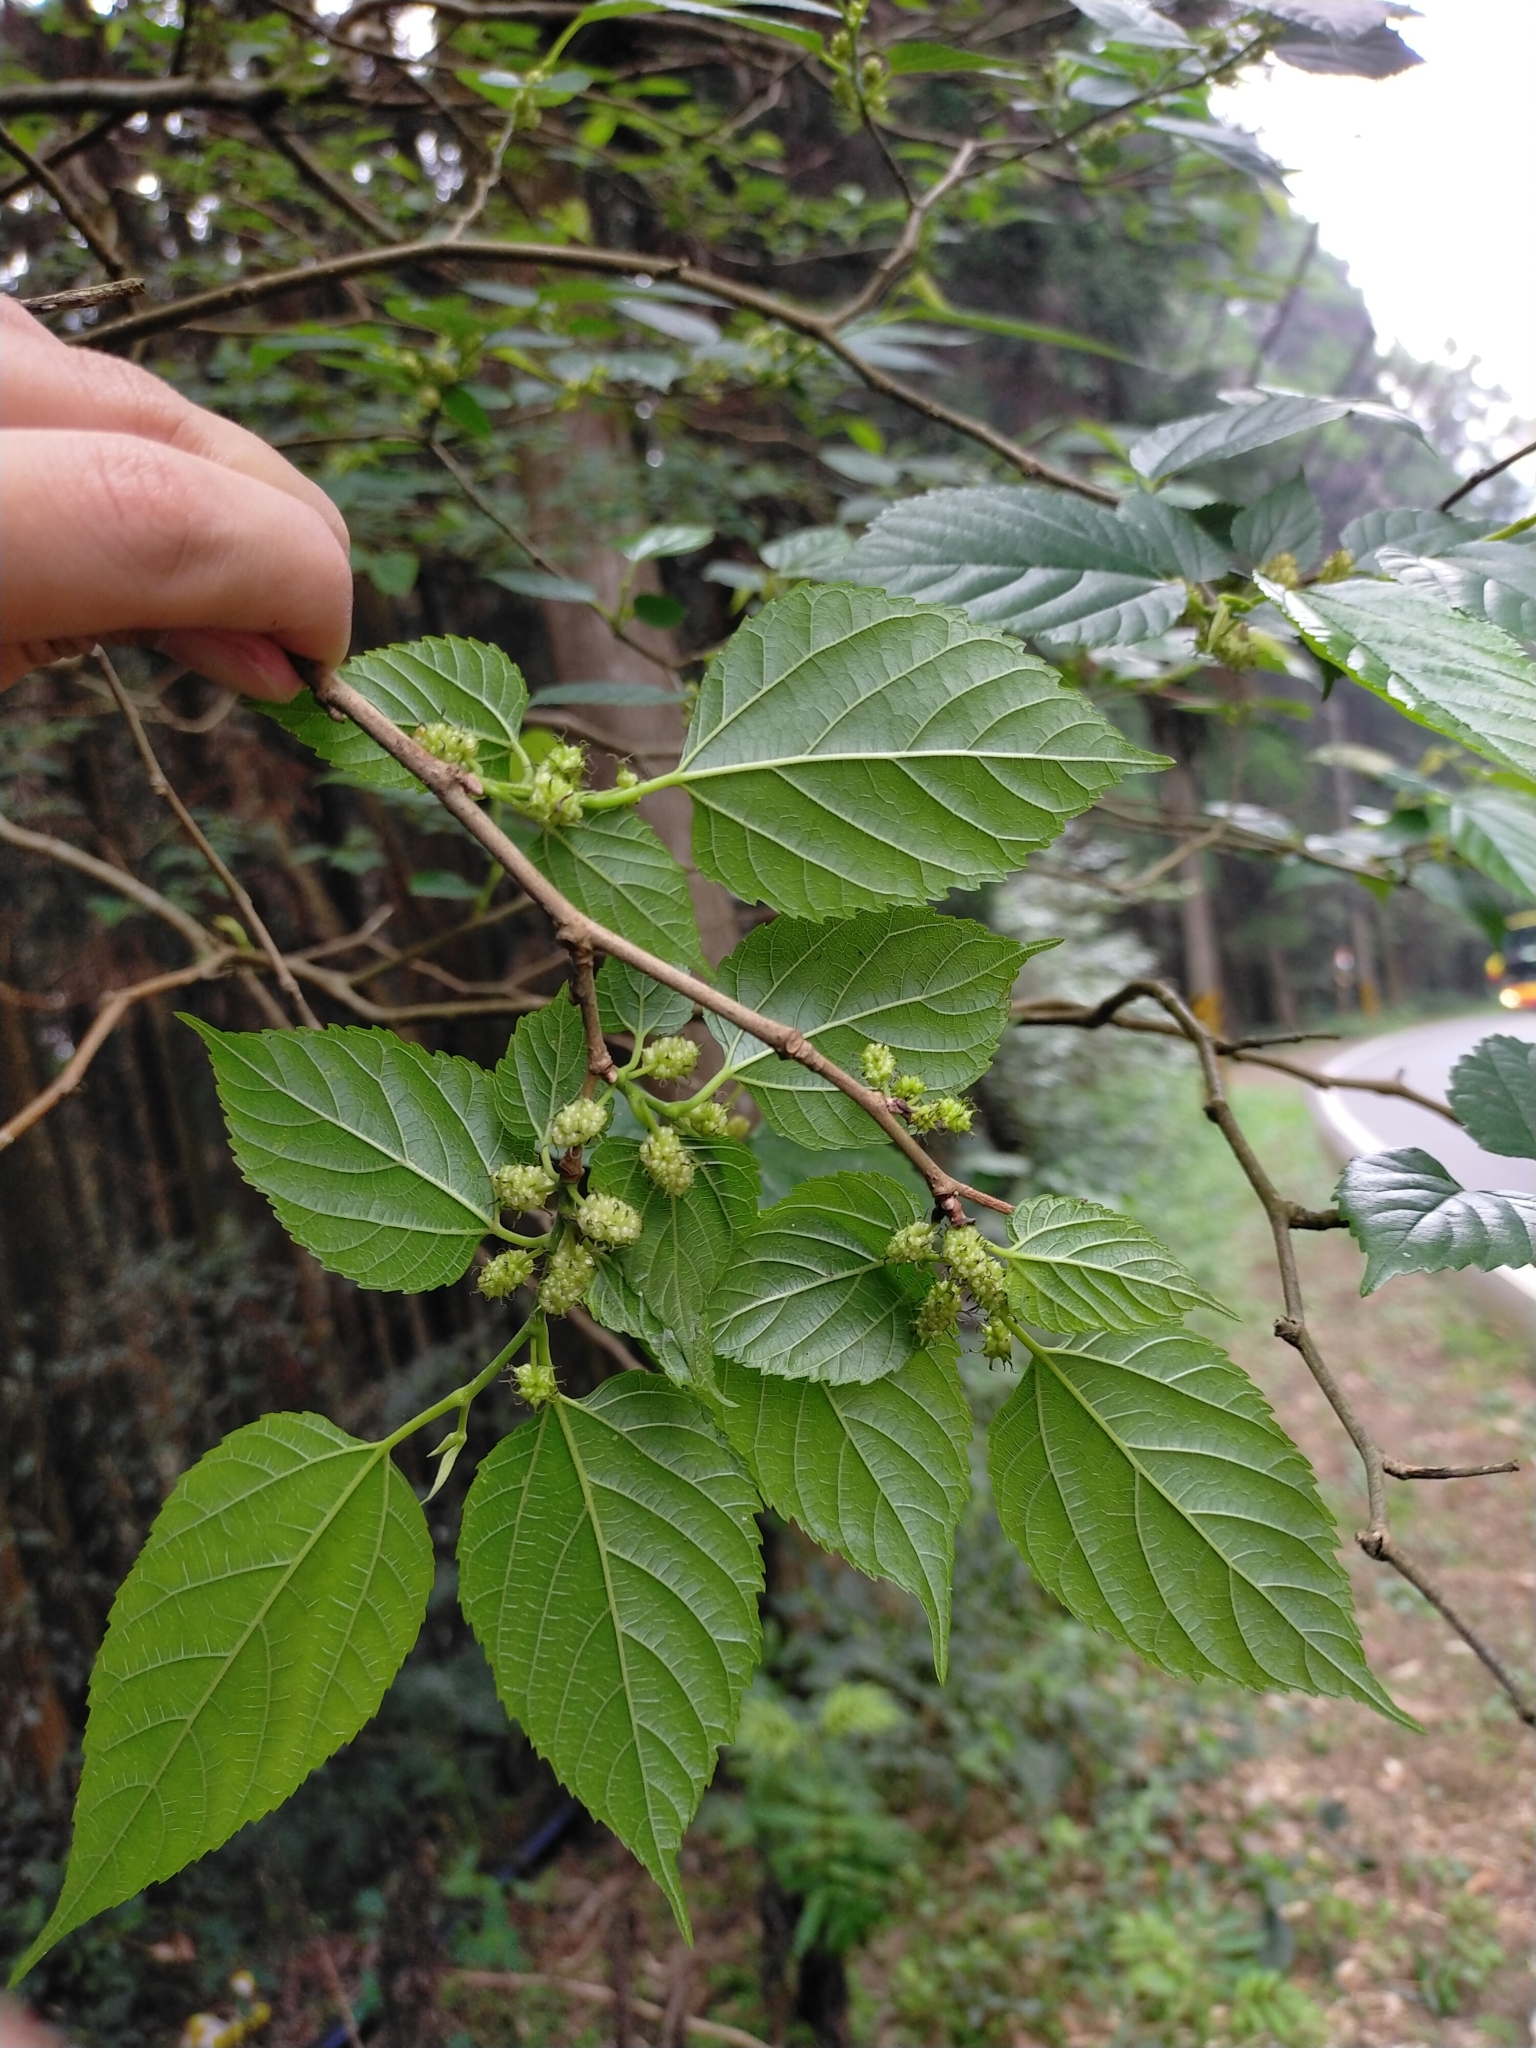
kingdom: Plantae
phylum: Tracheophyta
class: Magnoliopsida
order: Rosales
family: Moraceae
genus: Morus
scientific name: Morus indica
